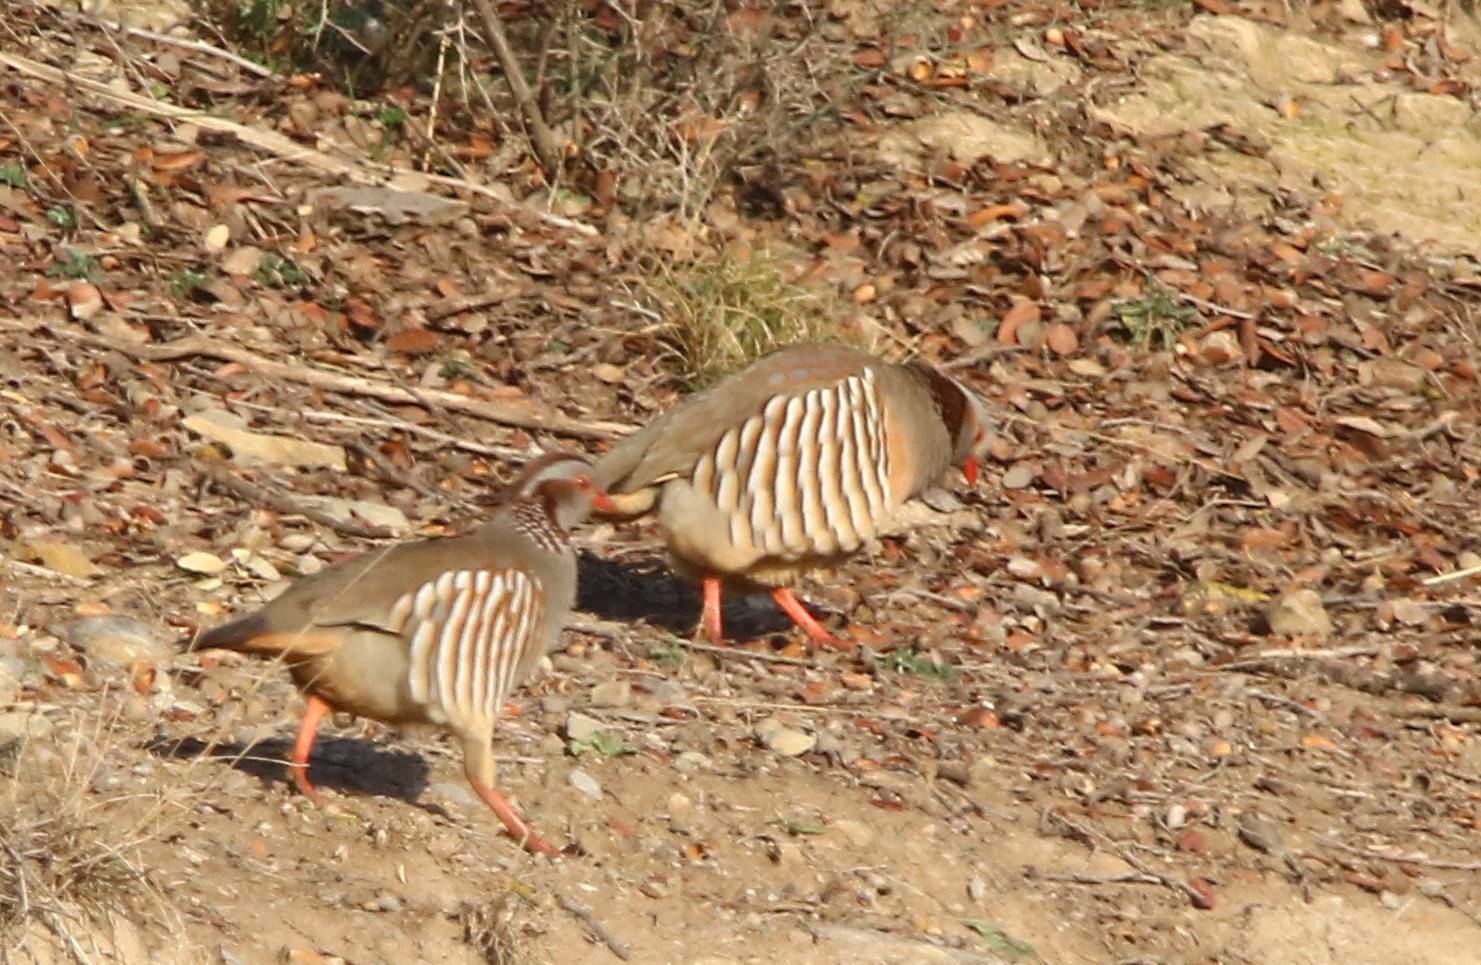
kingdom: Animalia
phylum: Chordata
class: Aves
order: Galliformes
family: Phasianidae
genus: Alectoris
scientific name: Alectoris barbara
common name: Barbary partridge
